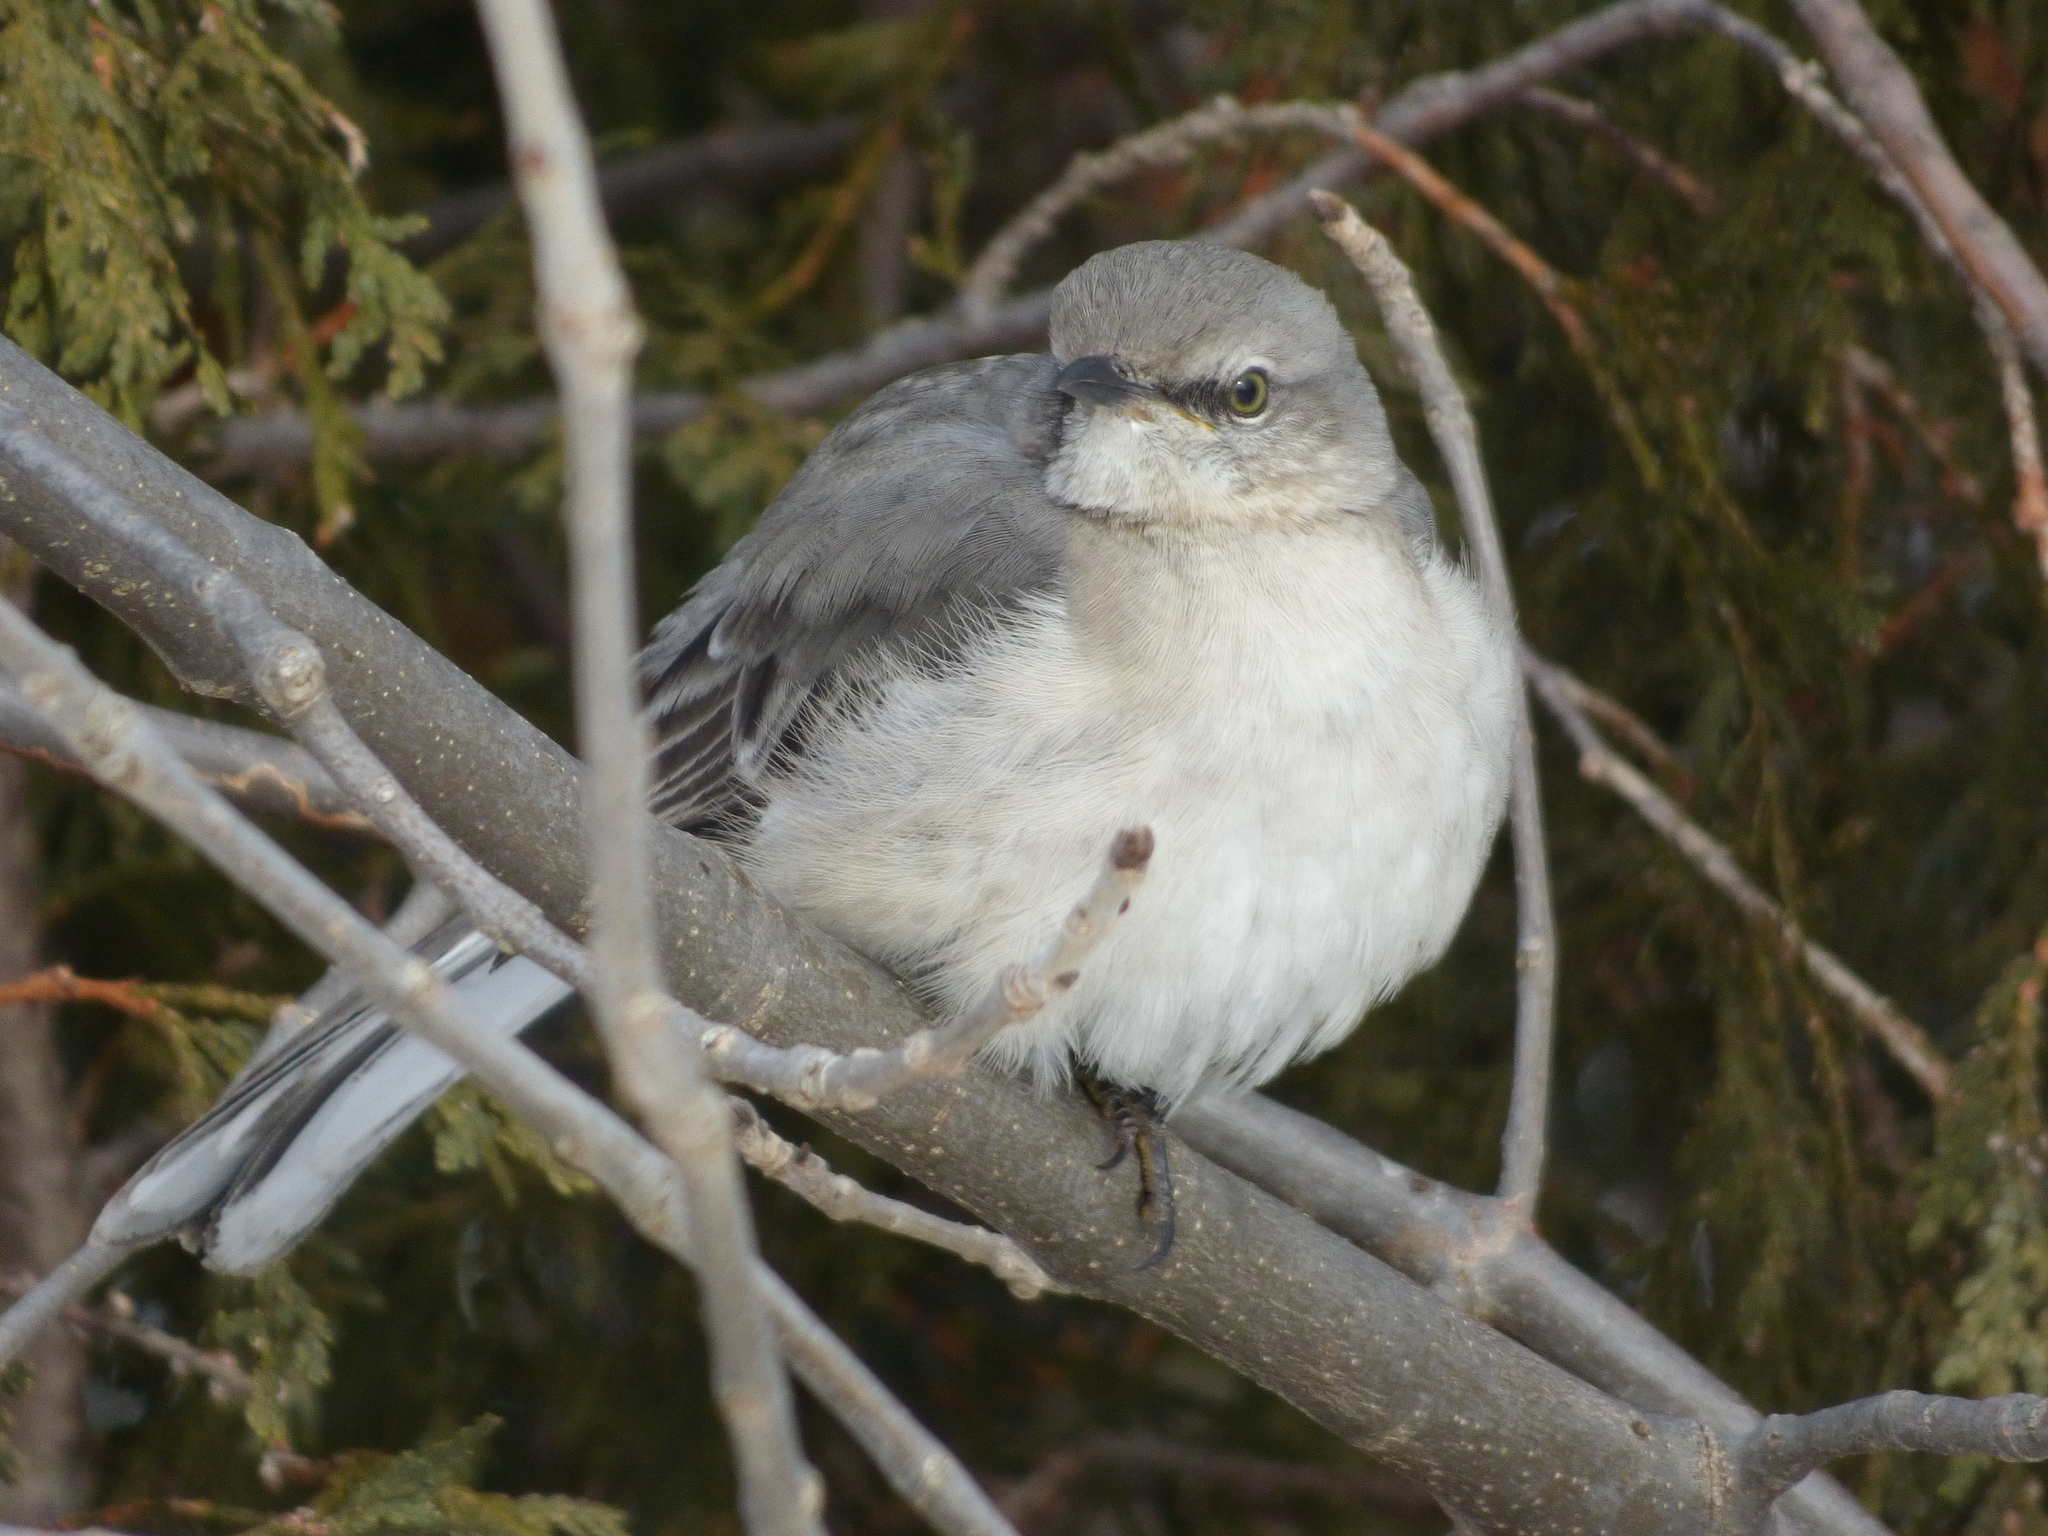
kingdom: Animalia
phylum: Chordata
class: Aves
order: Passeriformes
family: Mimidae
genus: Mimus
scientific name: Mimus polyglottos
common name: Northern mockingbird
